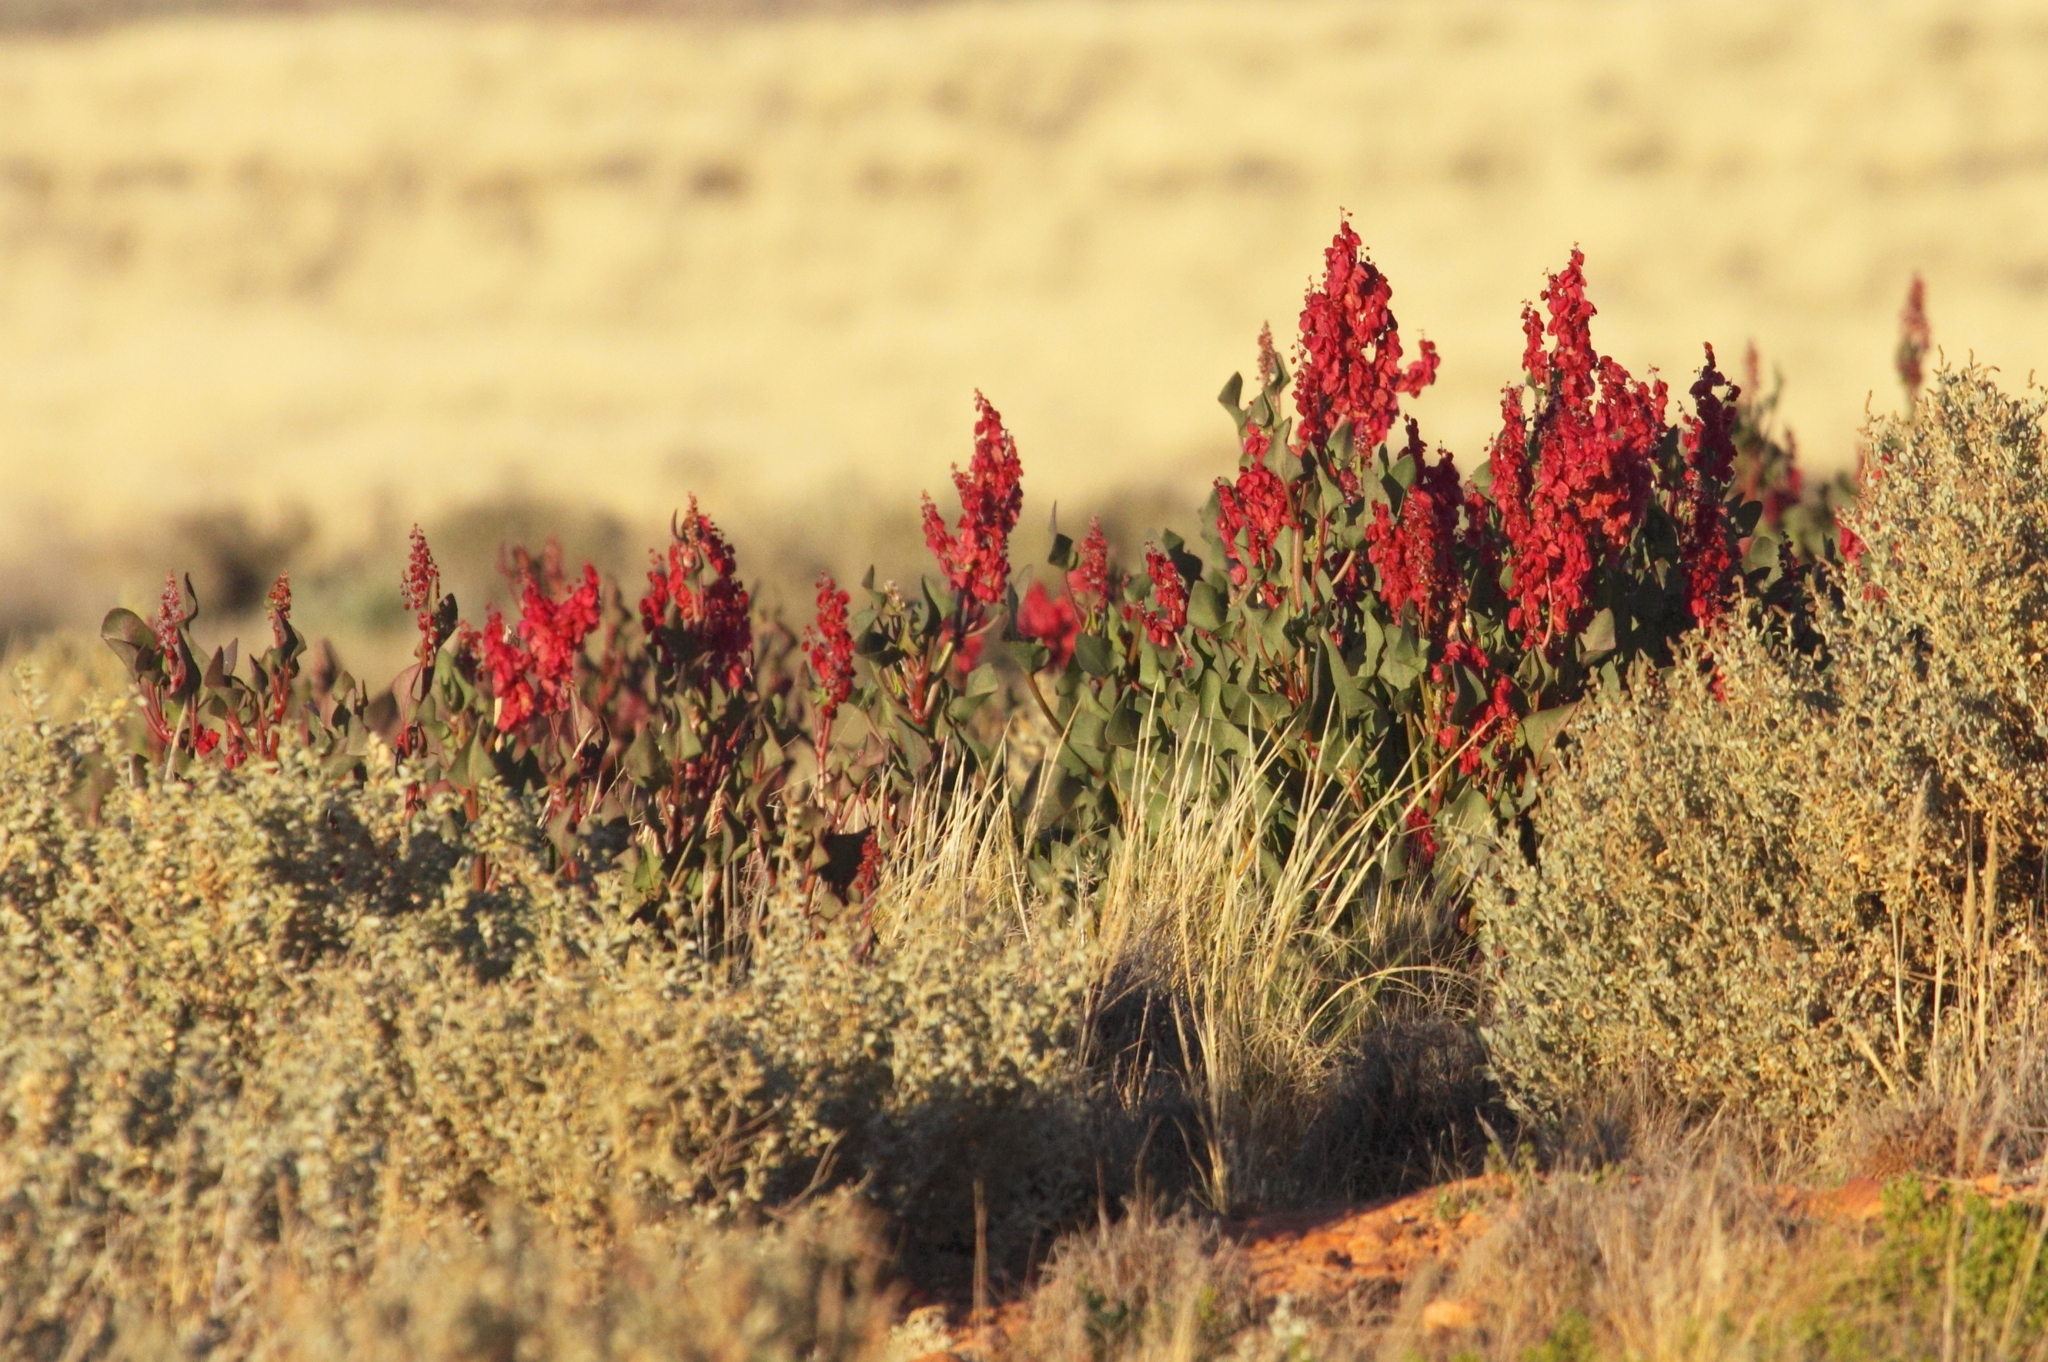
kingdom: Plantae
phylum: Tracheophyta
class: Magnoliopsida
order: Caryophyllales
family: Polygonaceae
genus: Rumex
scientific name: Rumex vesicarius
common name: Bladder dock
